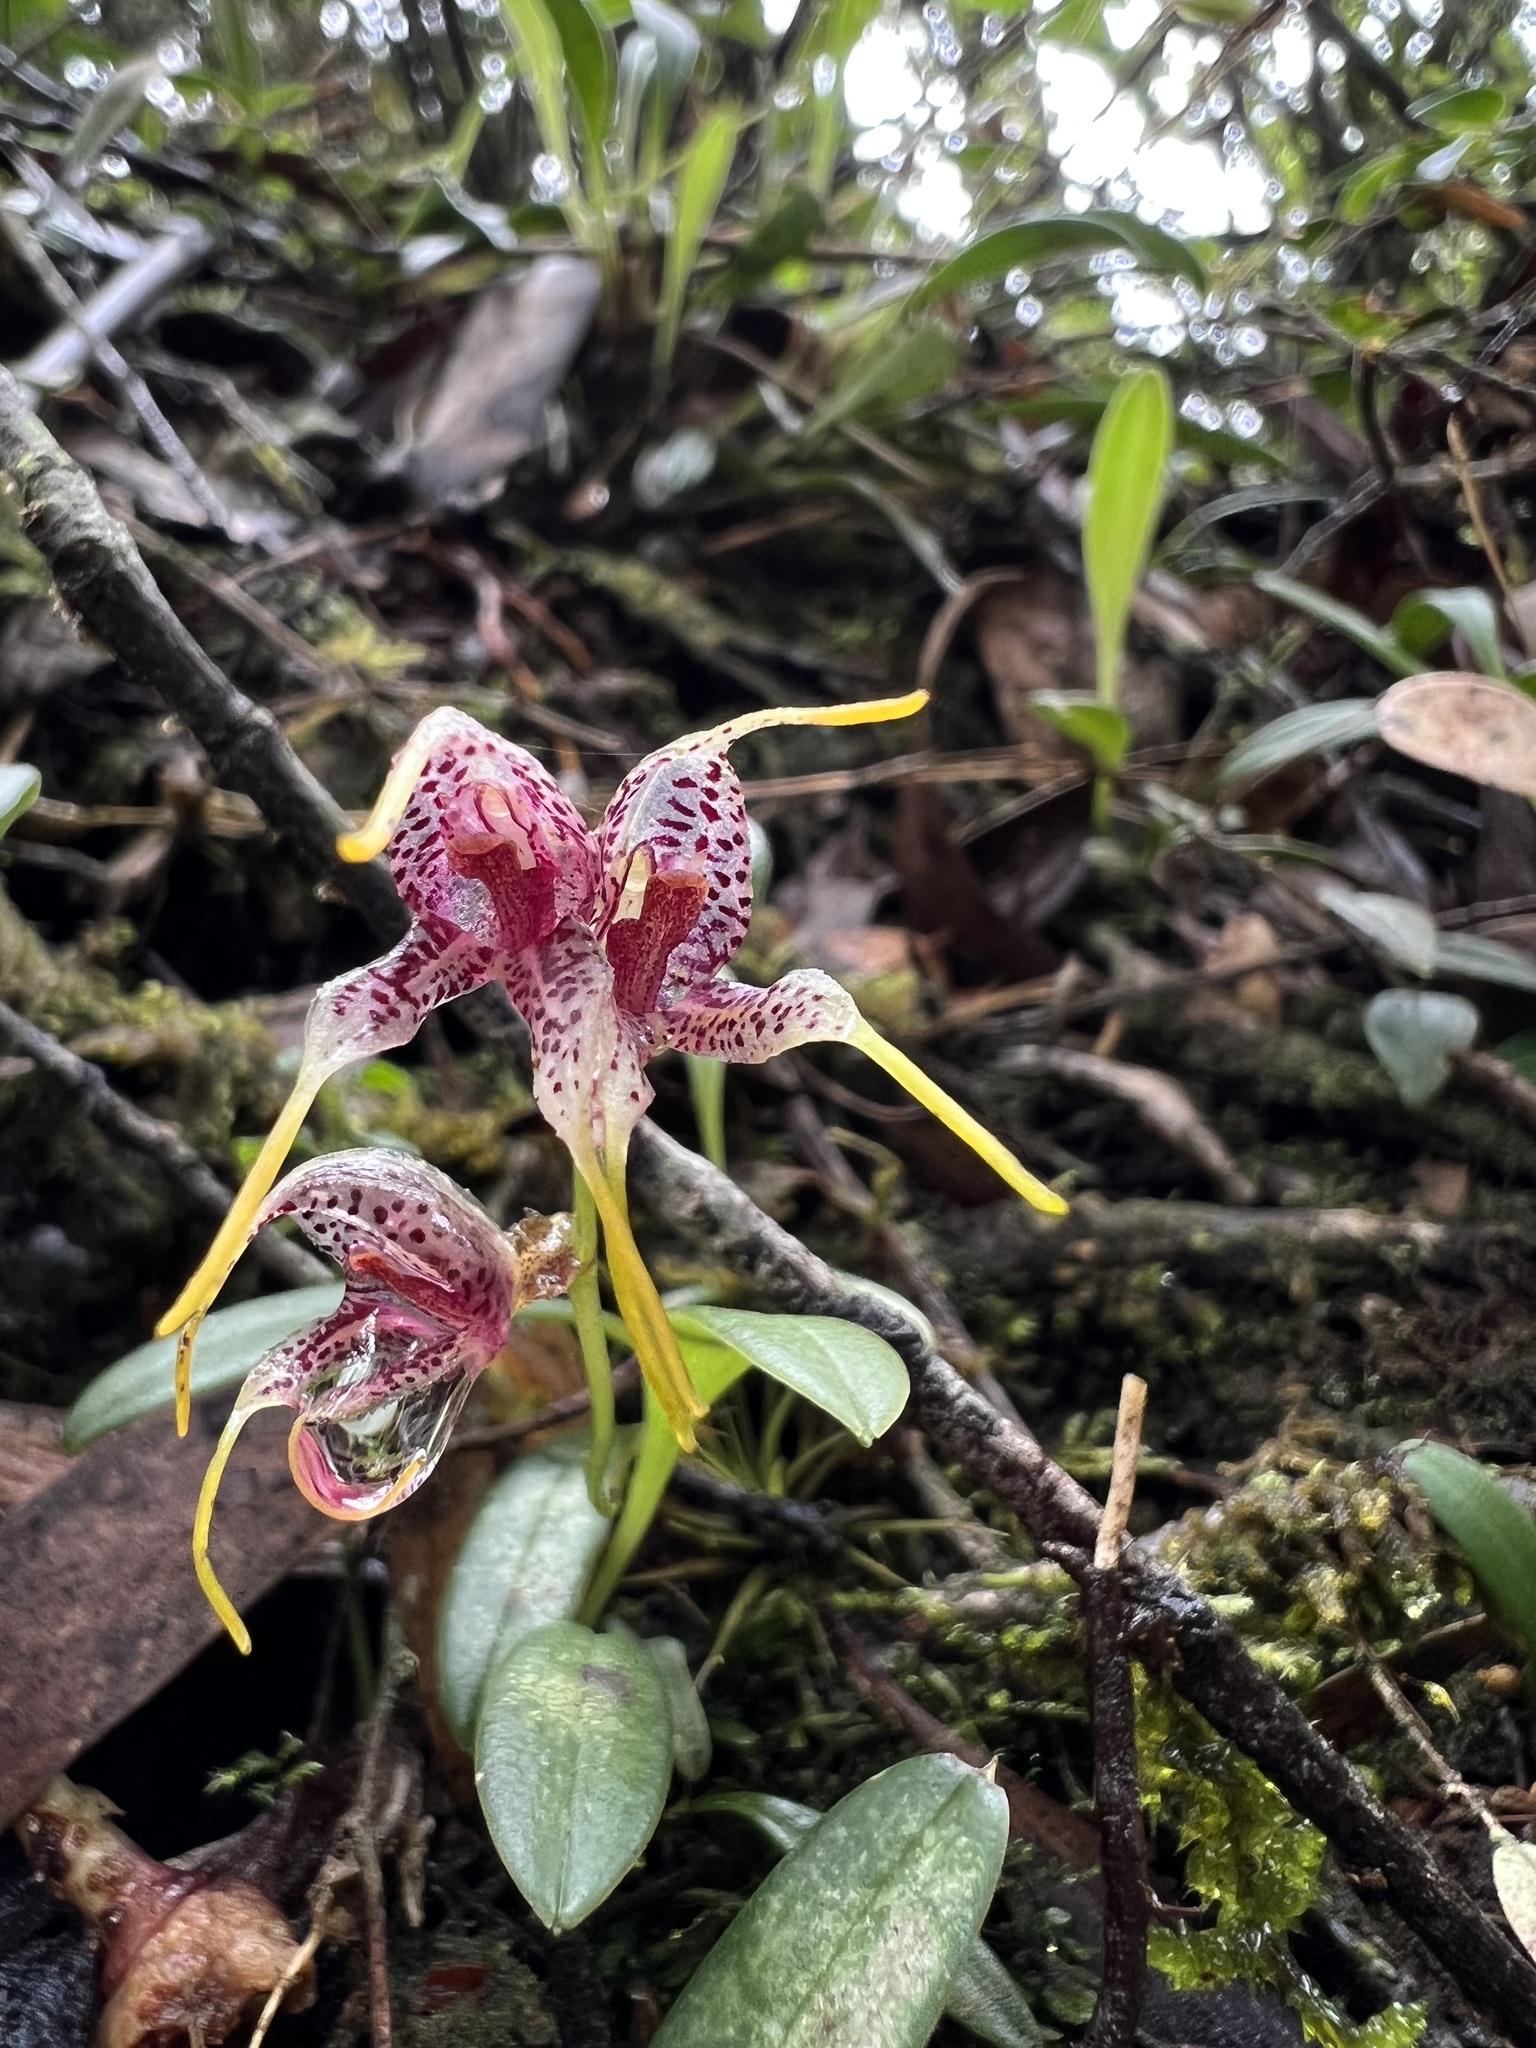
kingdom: Plantae
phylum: Tracheophyta
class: Liliopsida
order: Asparagales
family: Orchidaceae
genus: Masdevallia
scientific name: Masdevallia amanda
